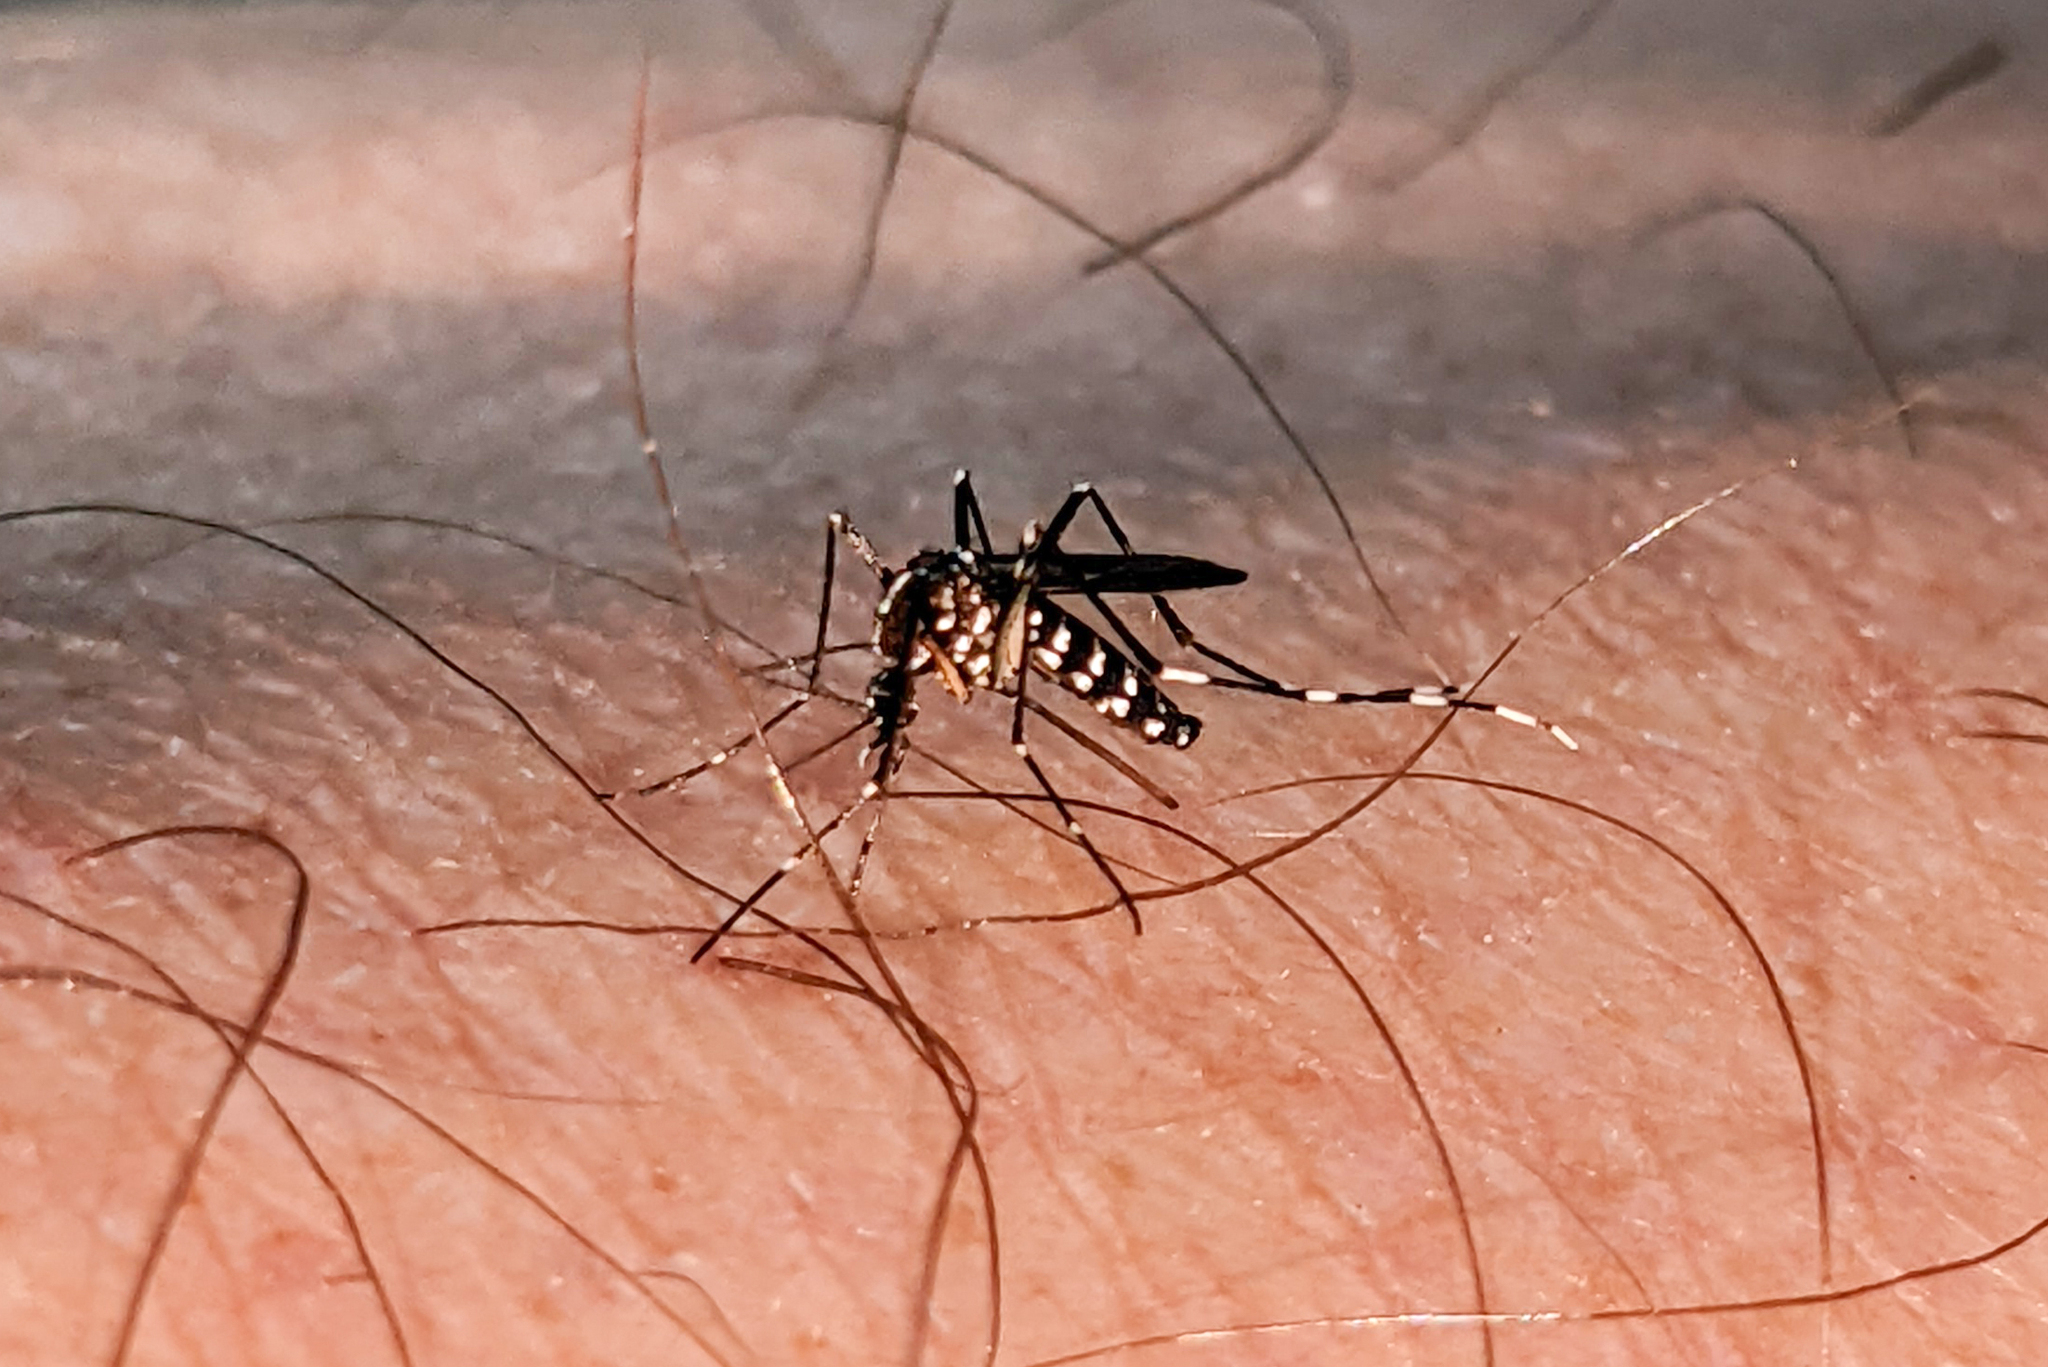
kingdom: Animalia
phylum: Arthropoda
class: Insecta
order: Diptera
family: Culicidae
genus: Aedes
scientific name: Aedes albopictus
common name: Tiger mosquito
